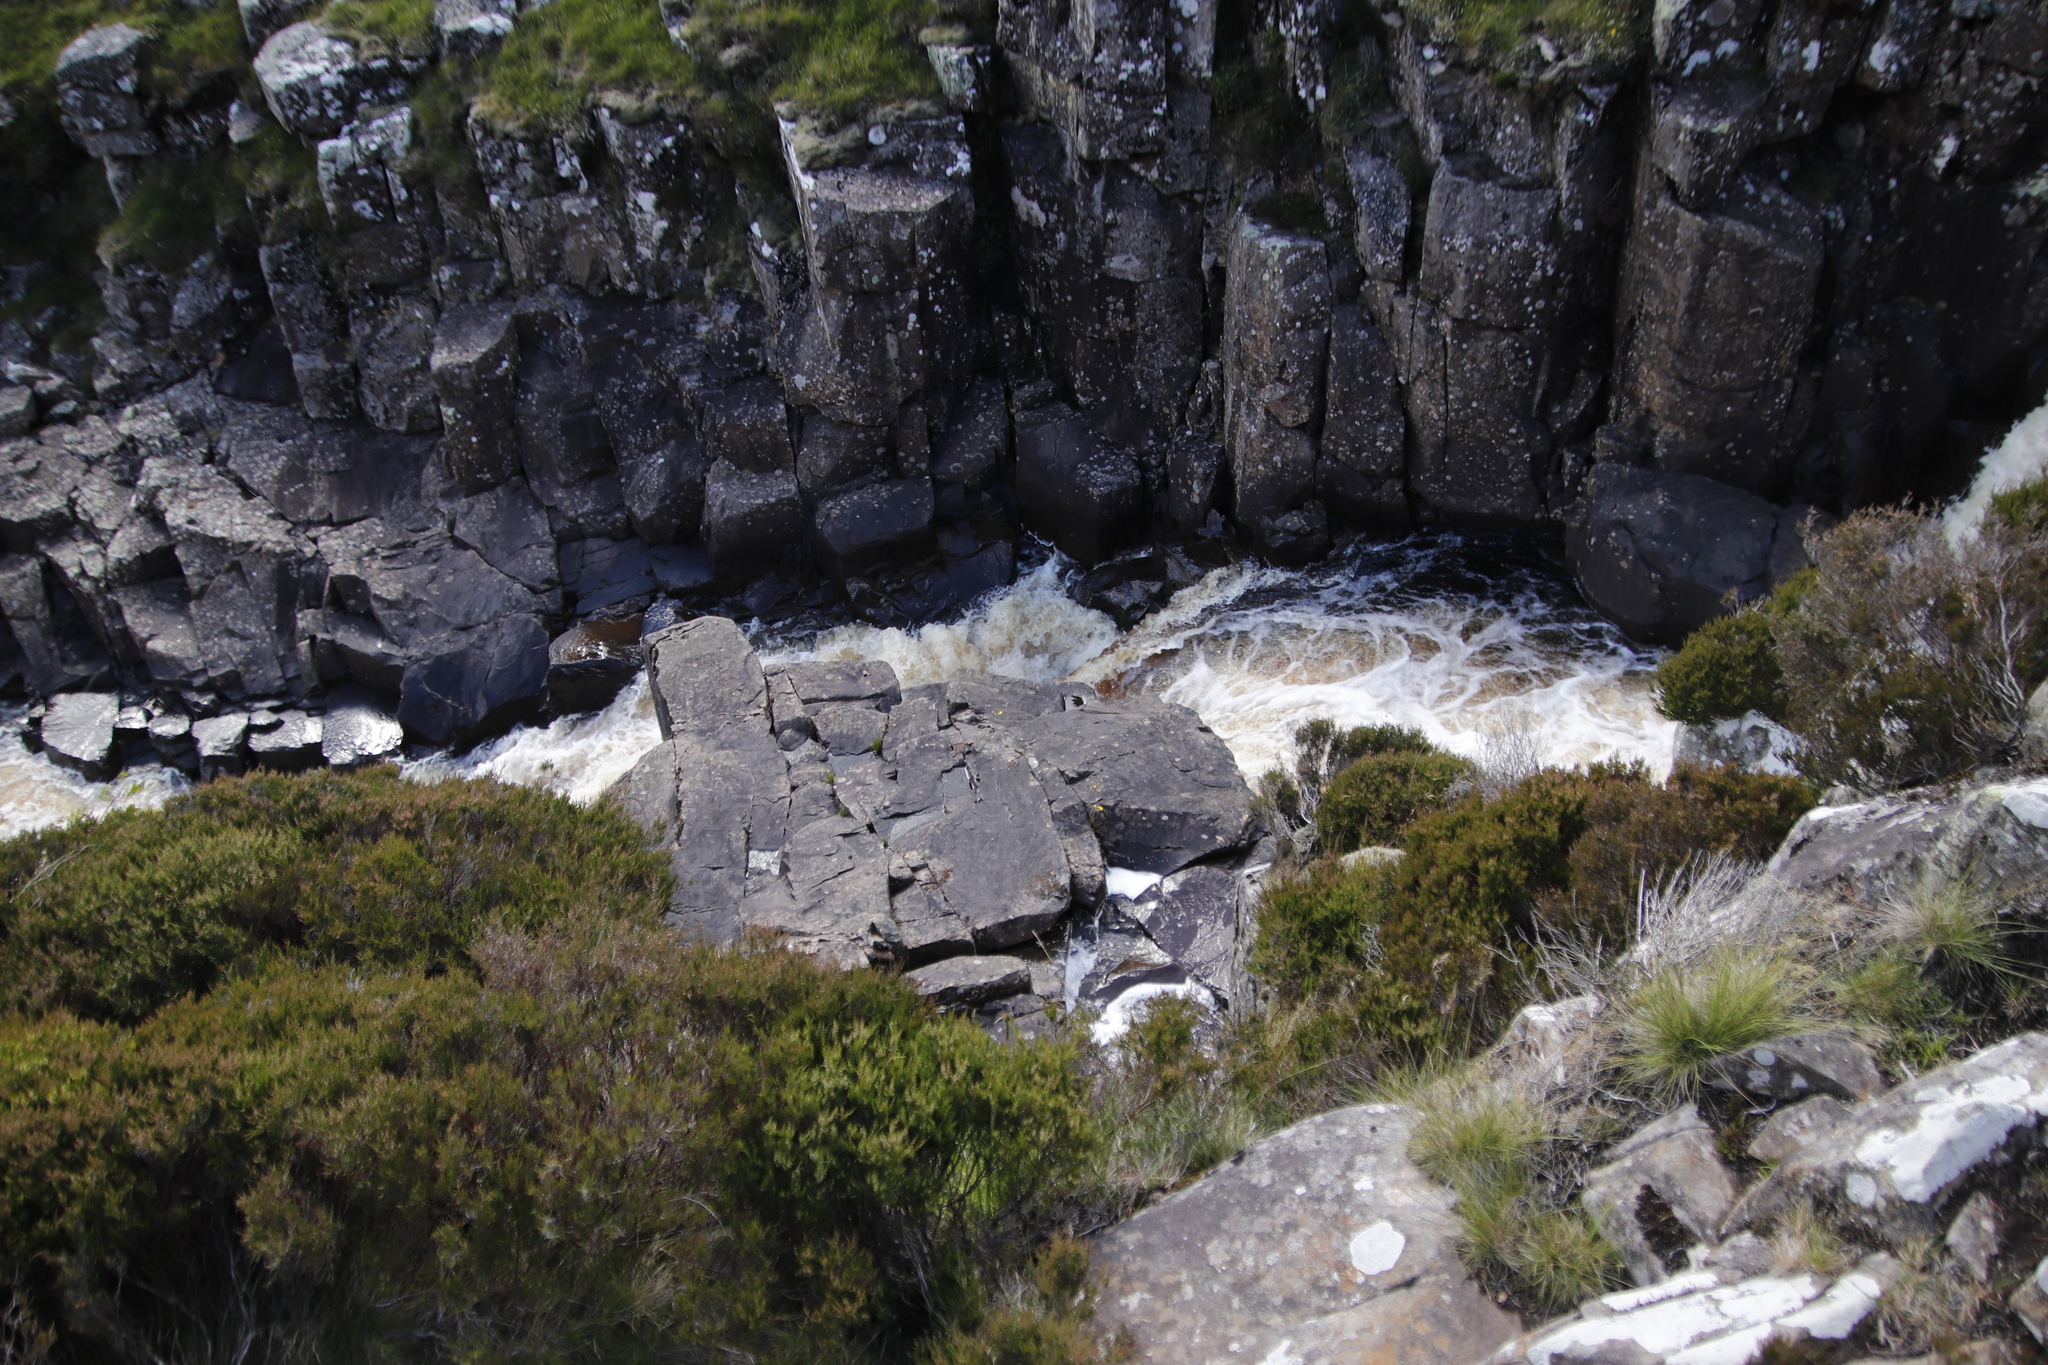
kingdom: Plantae
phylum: Tracheophyta
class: Magnoliopsida
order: Ericales
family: Ericaceae
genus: Calluna
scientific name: Calluna vulgaris
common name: Heather
